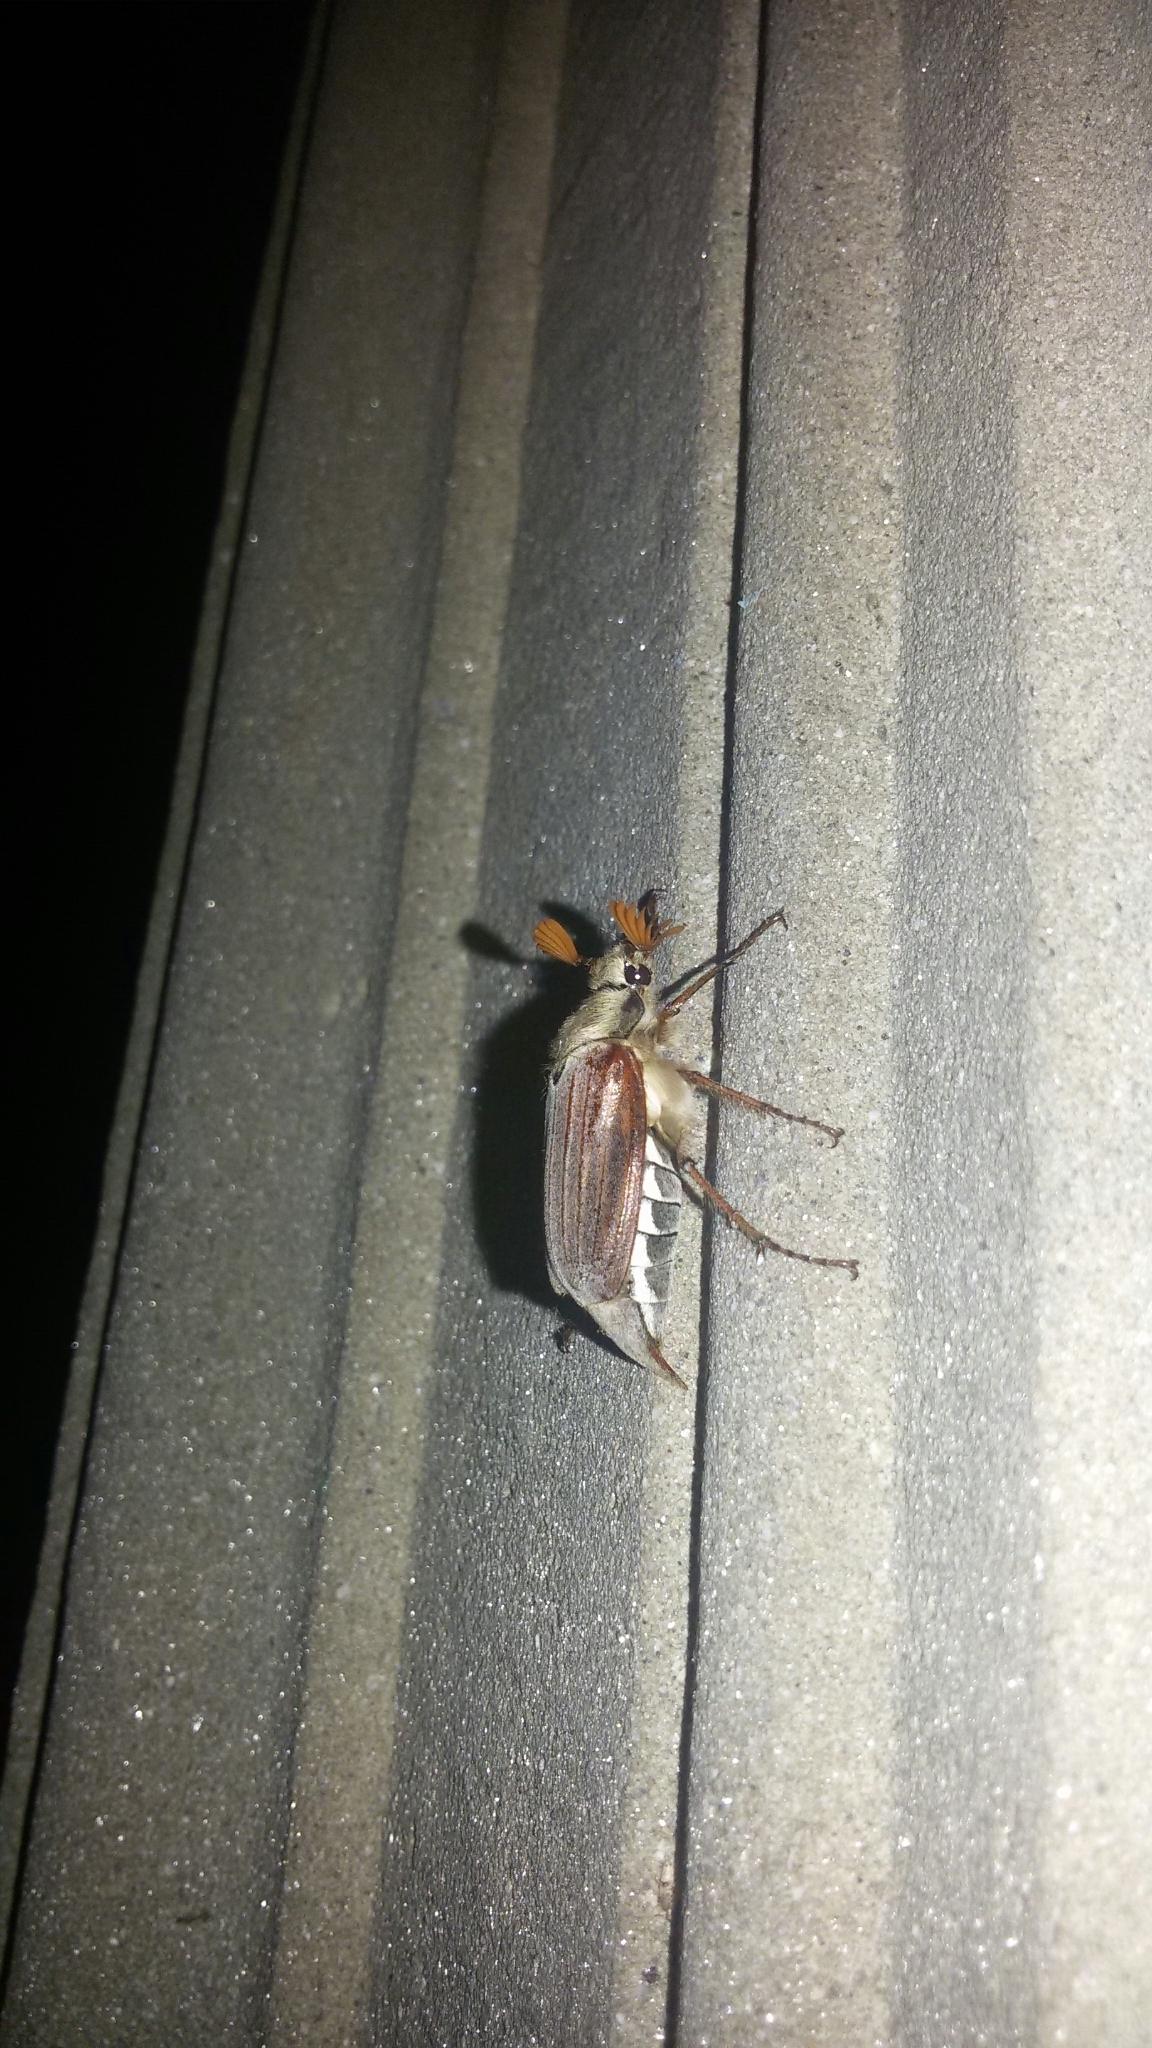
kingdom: Animalia
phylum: Arthropoda
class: Insecta
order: Coleoptera
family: Scarabaeidae
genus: Melolontha
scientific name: Melolontha melolontha
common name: Cockchafer maybeetle
